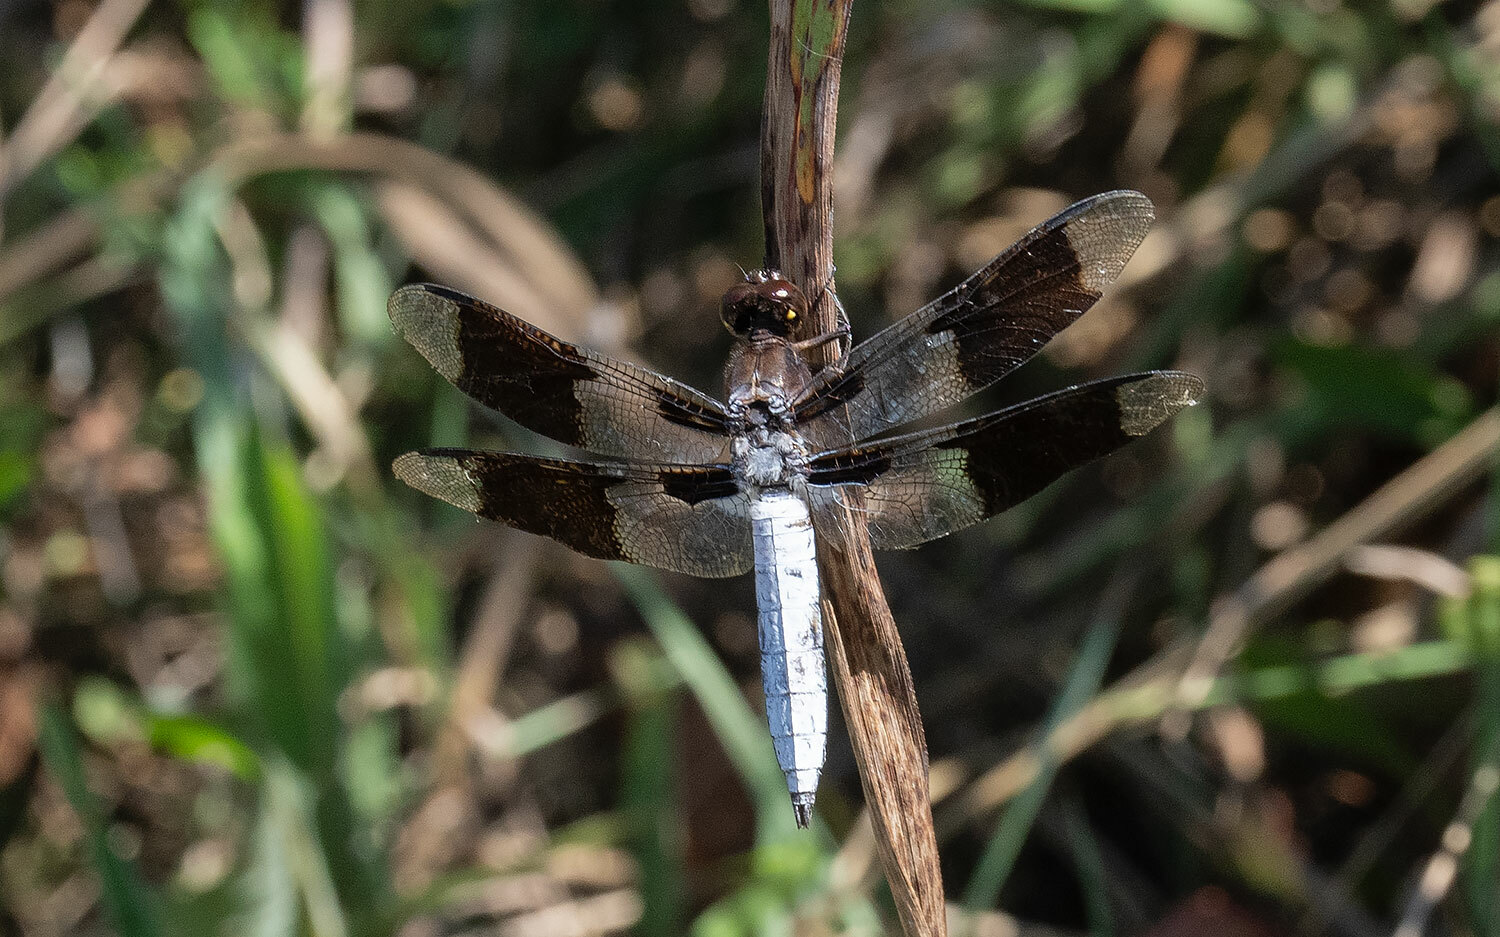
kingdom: Animalia
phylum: Arthropoda
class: Insecta
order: Odonata
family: Libellulidae
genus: Plathemis
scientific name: Plathemis lydia
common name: Common whitetail
